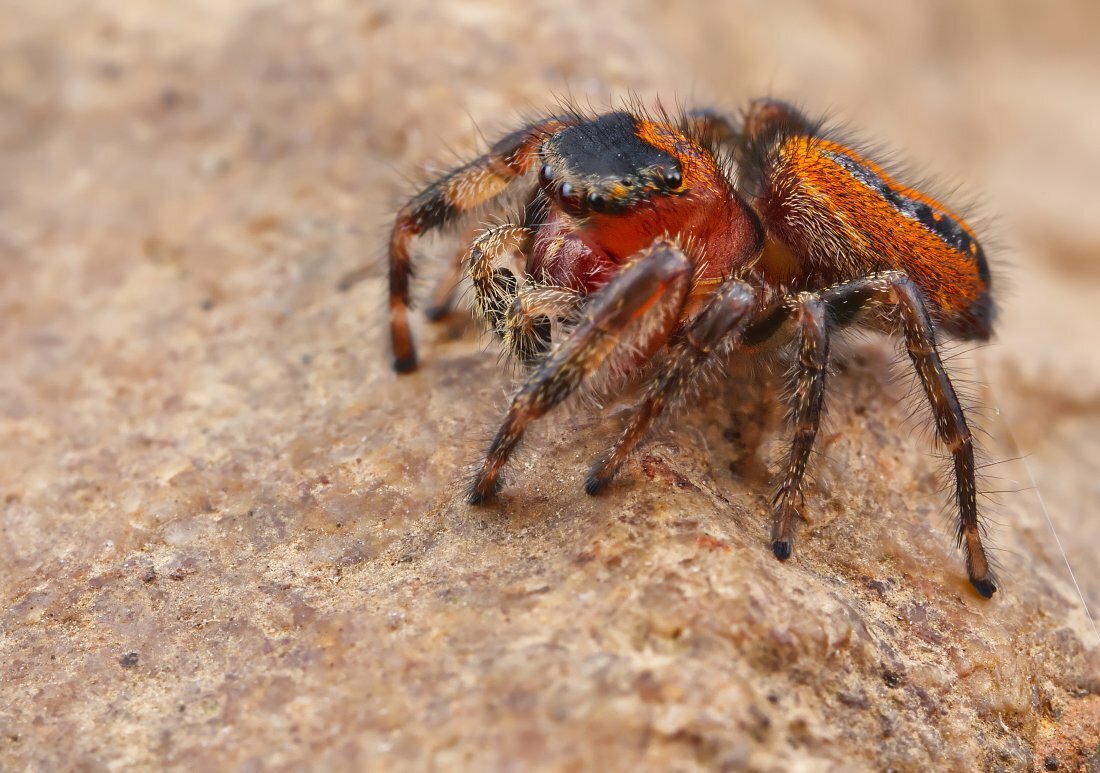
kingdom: Animalia
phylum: Arthropoda
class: Arachnida
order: Araneae
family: Salticidae
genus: Phidippus
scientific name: Phidippus pius
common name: Jumping spiders
